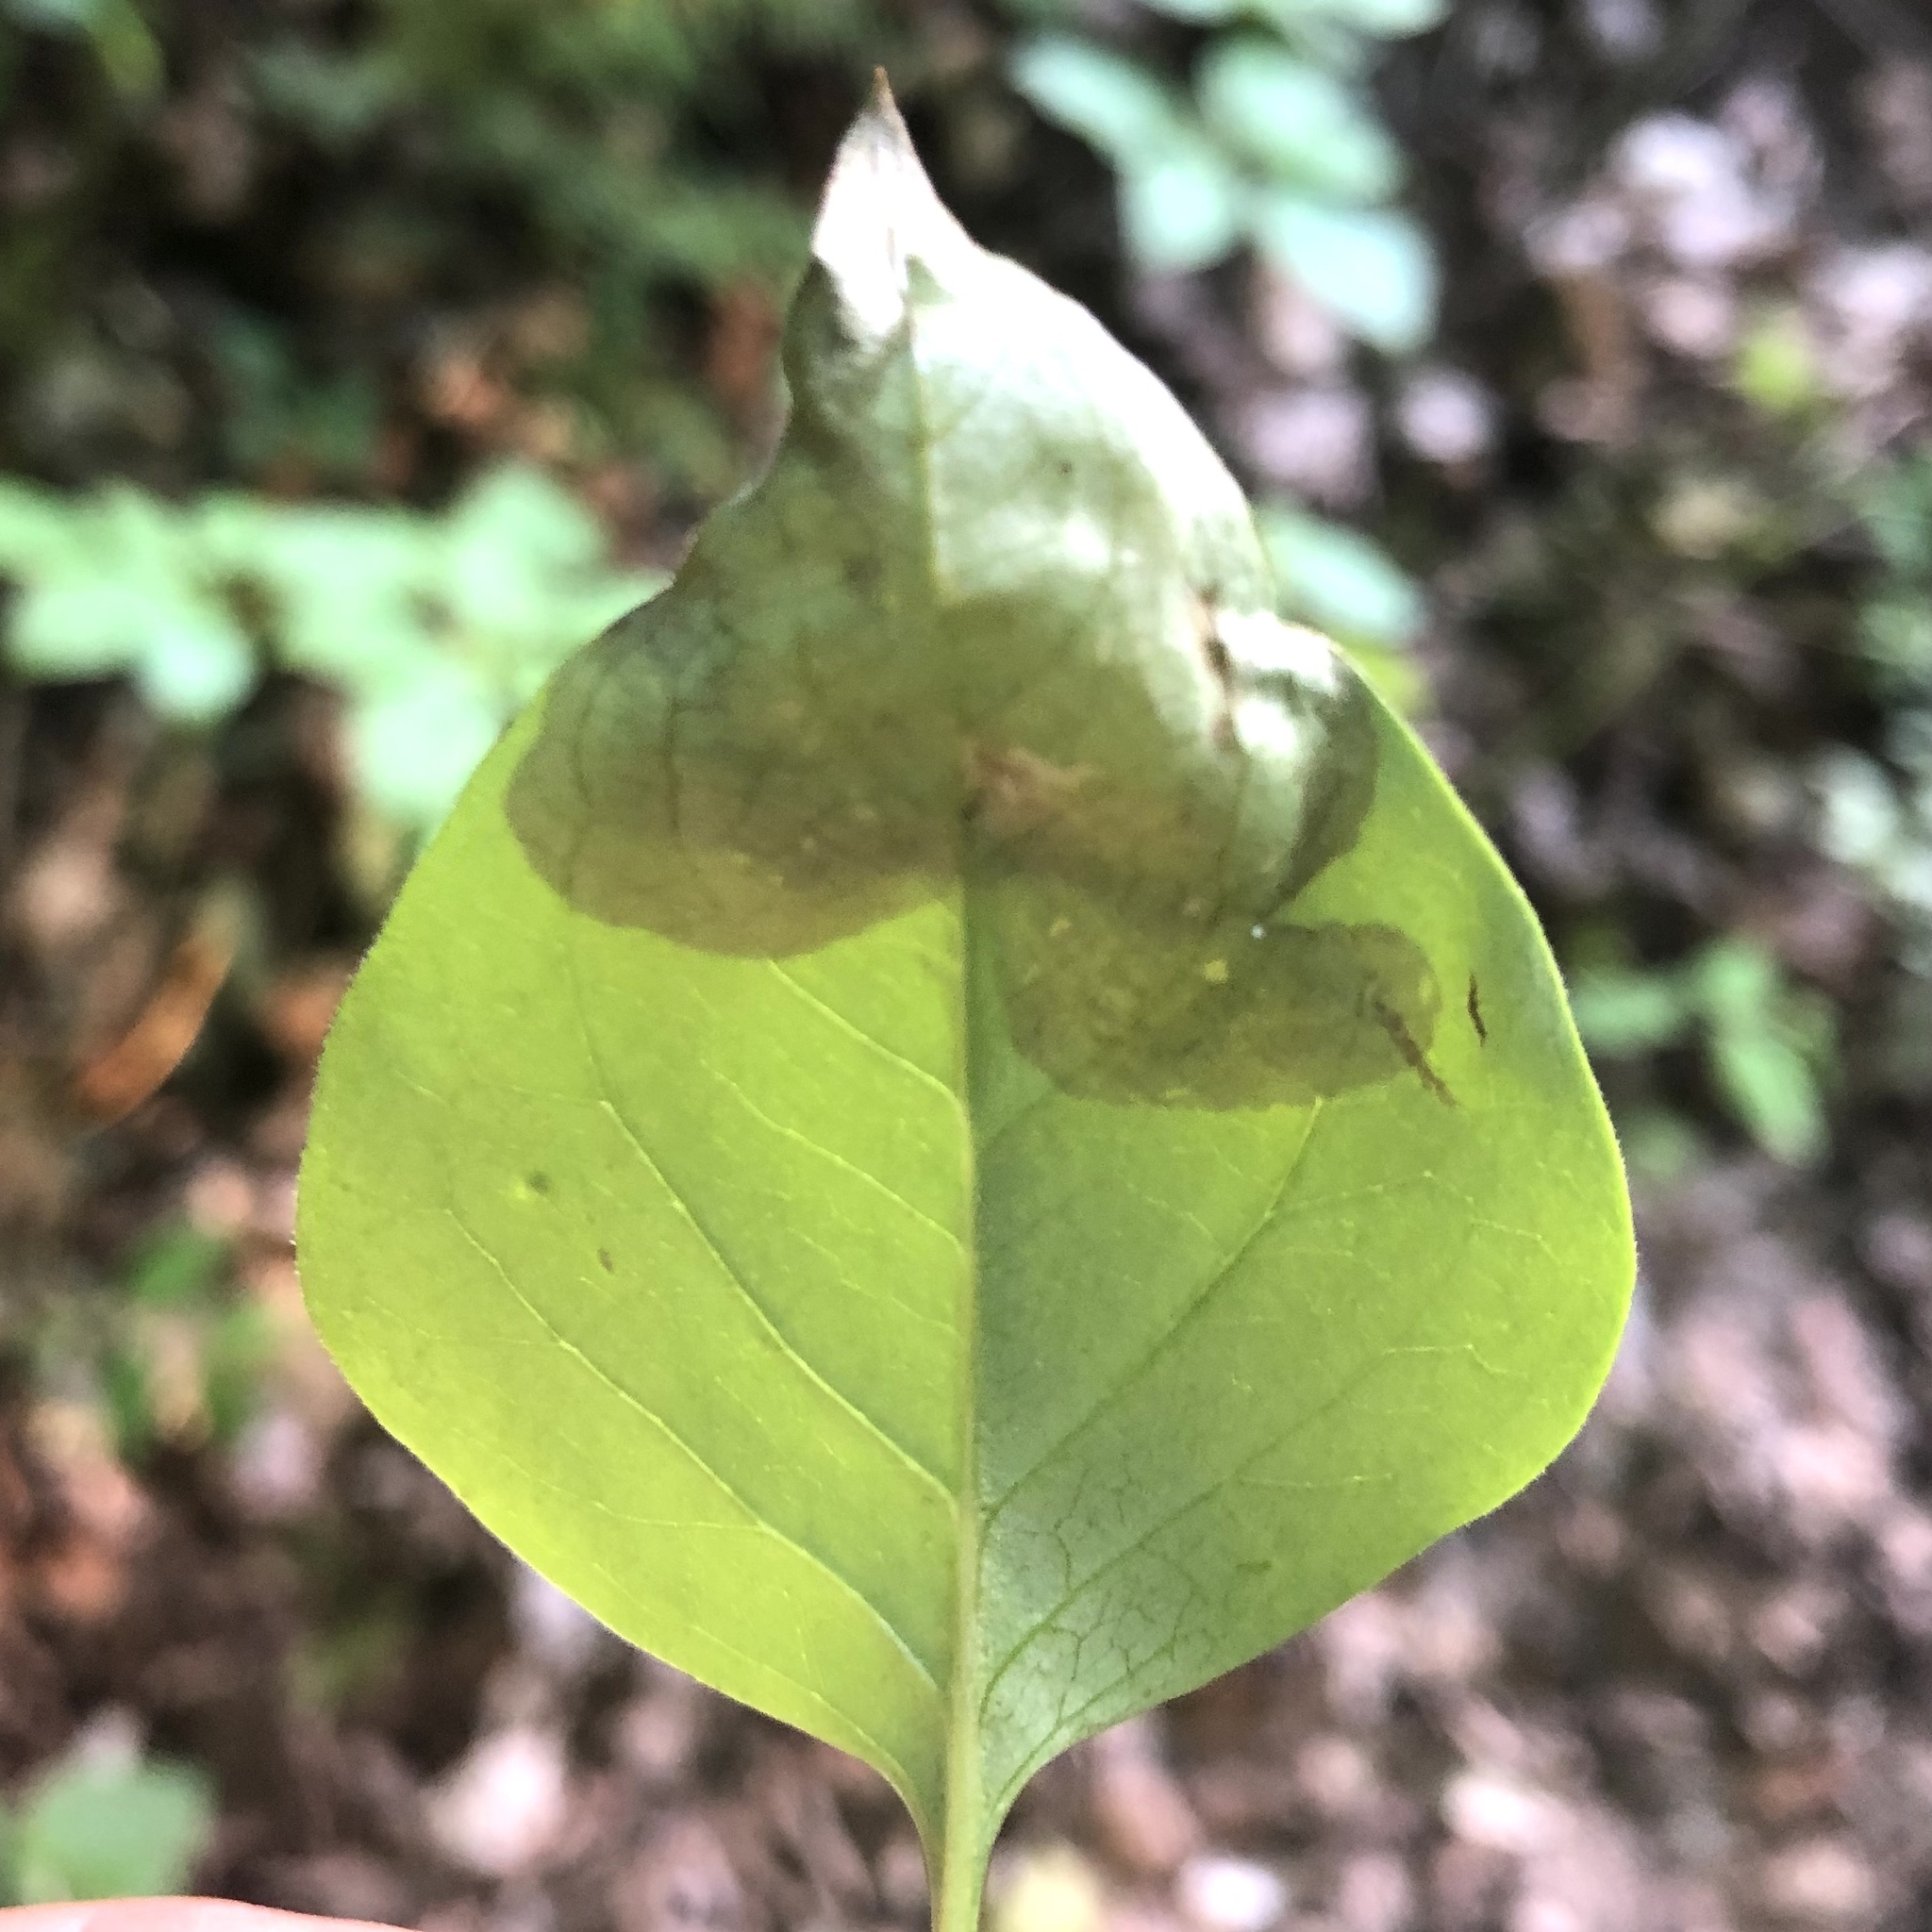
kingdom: Animalia
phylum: Arthropoda
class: Insecta
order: Lepidoptera
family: Gracillariidae
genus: Gracillaria
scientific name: Gracillaria syringella
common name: Common slender
